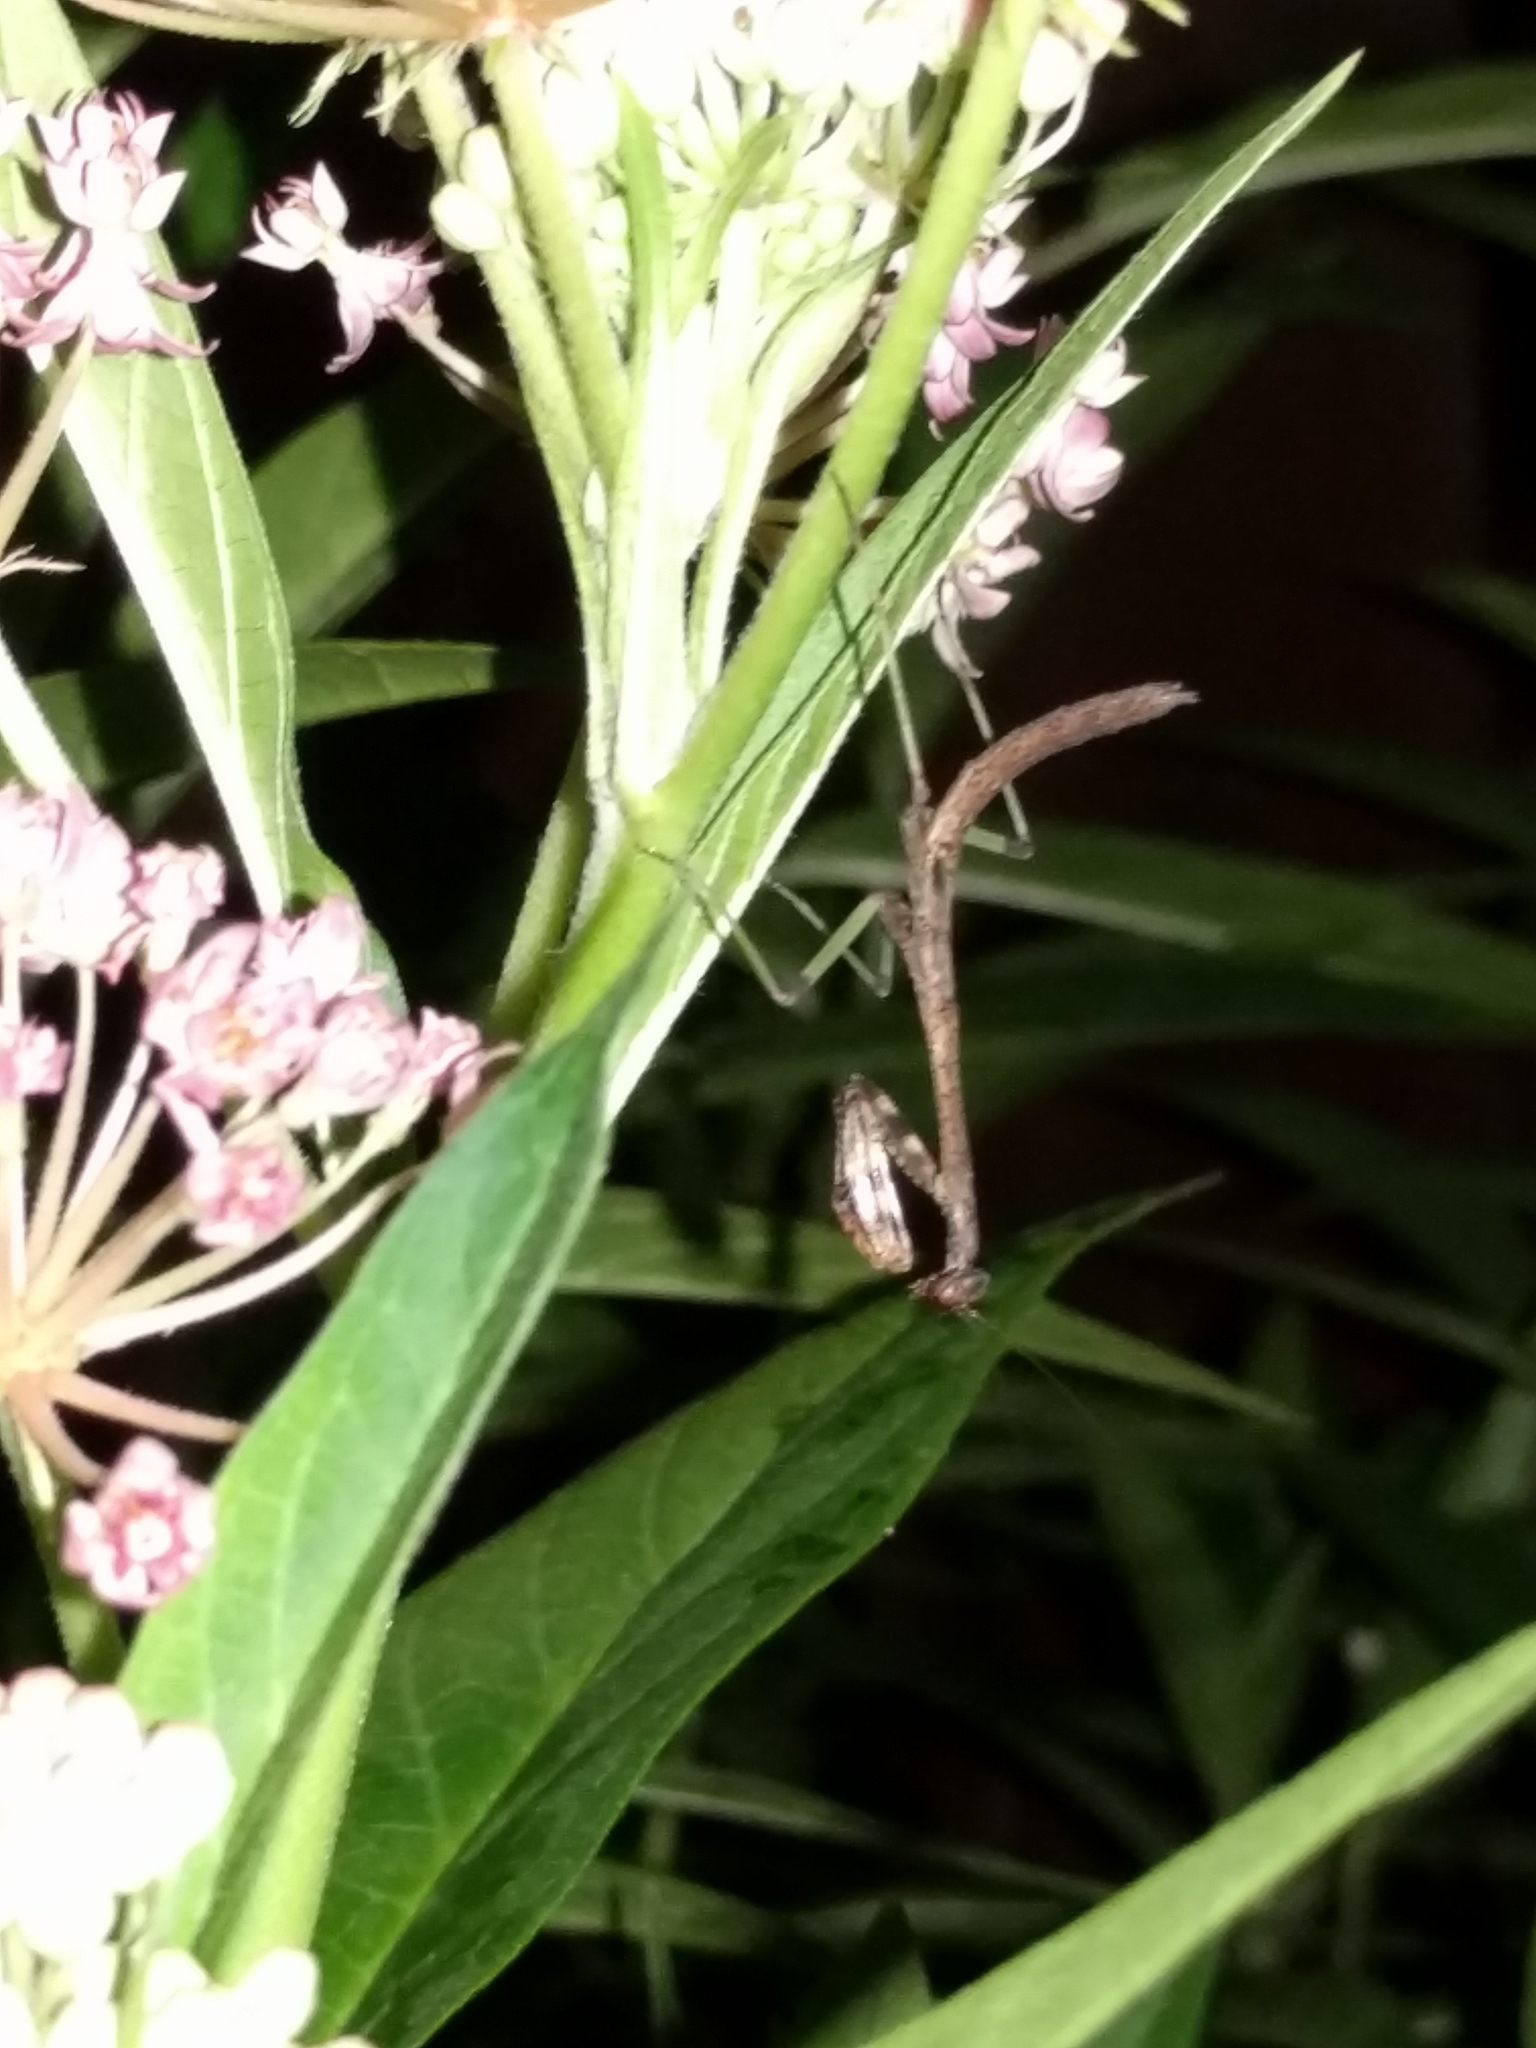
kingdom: Animalia
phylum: Arthropoda
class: Insecta
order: Mantodea
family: Mantidae
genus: Stagmomantis
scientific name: Stagmomantis carolina
